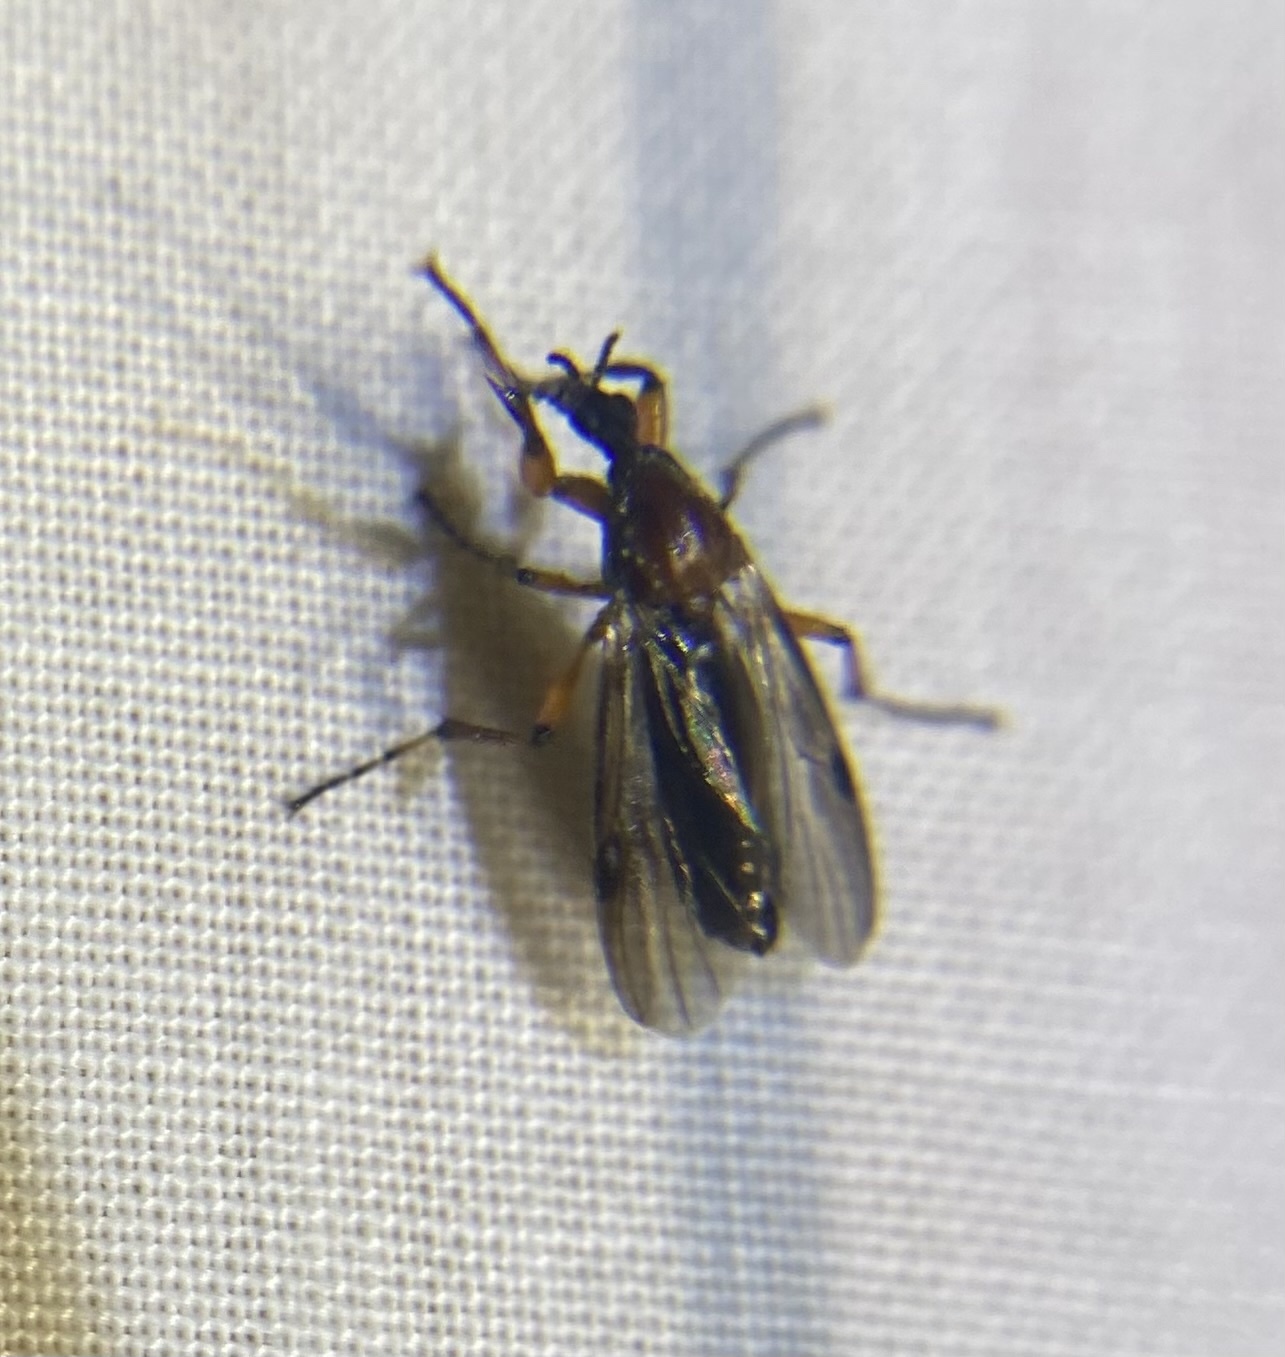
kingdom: Animalia
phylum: Arthropoda
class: Insecta
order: Diptera
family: Bibionidae
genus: Bibio
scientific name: Bibio articulatus
